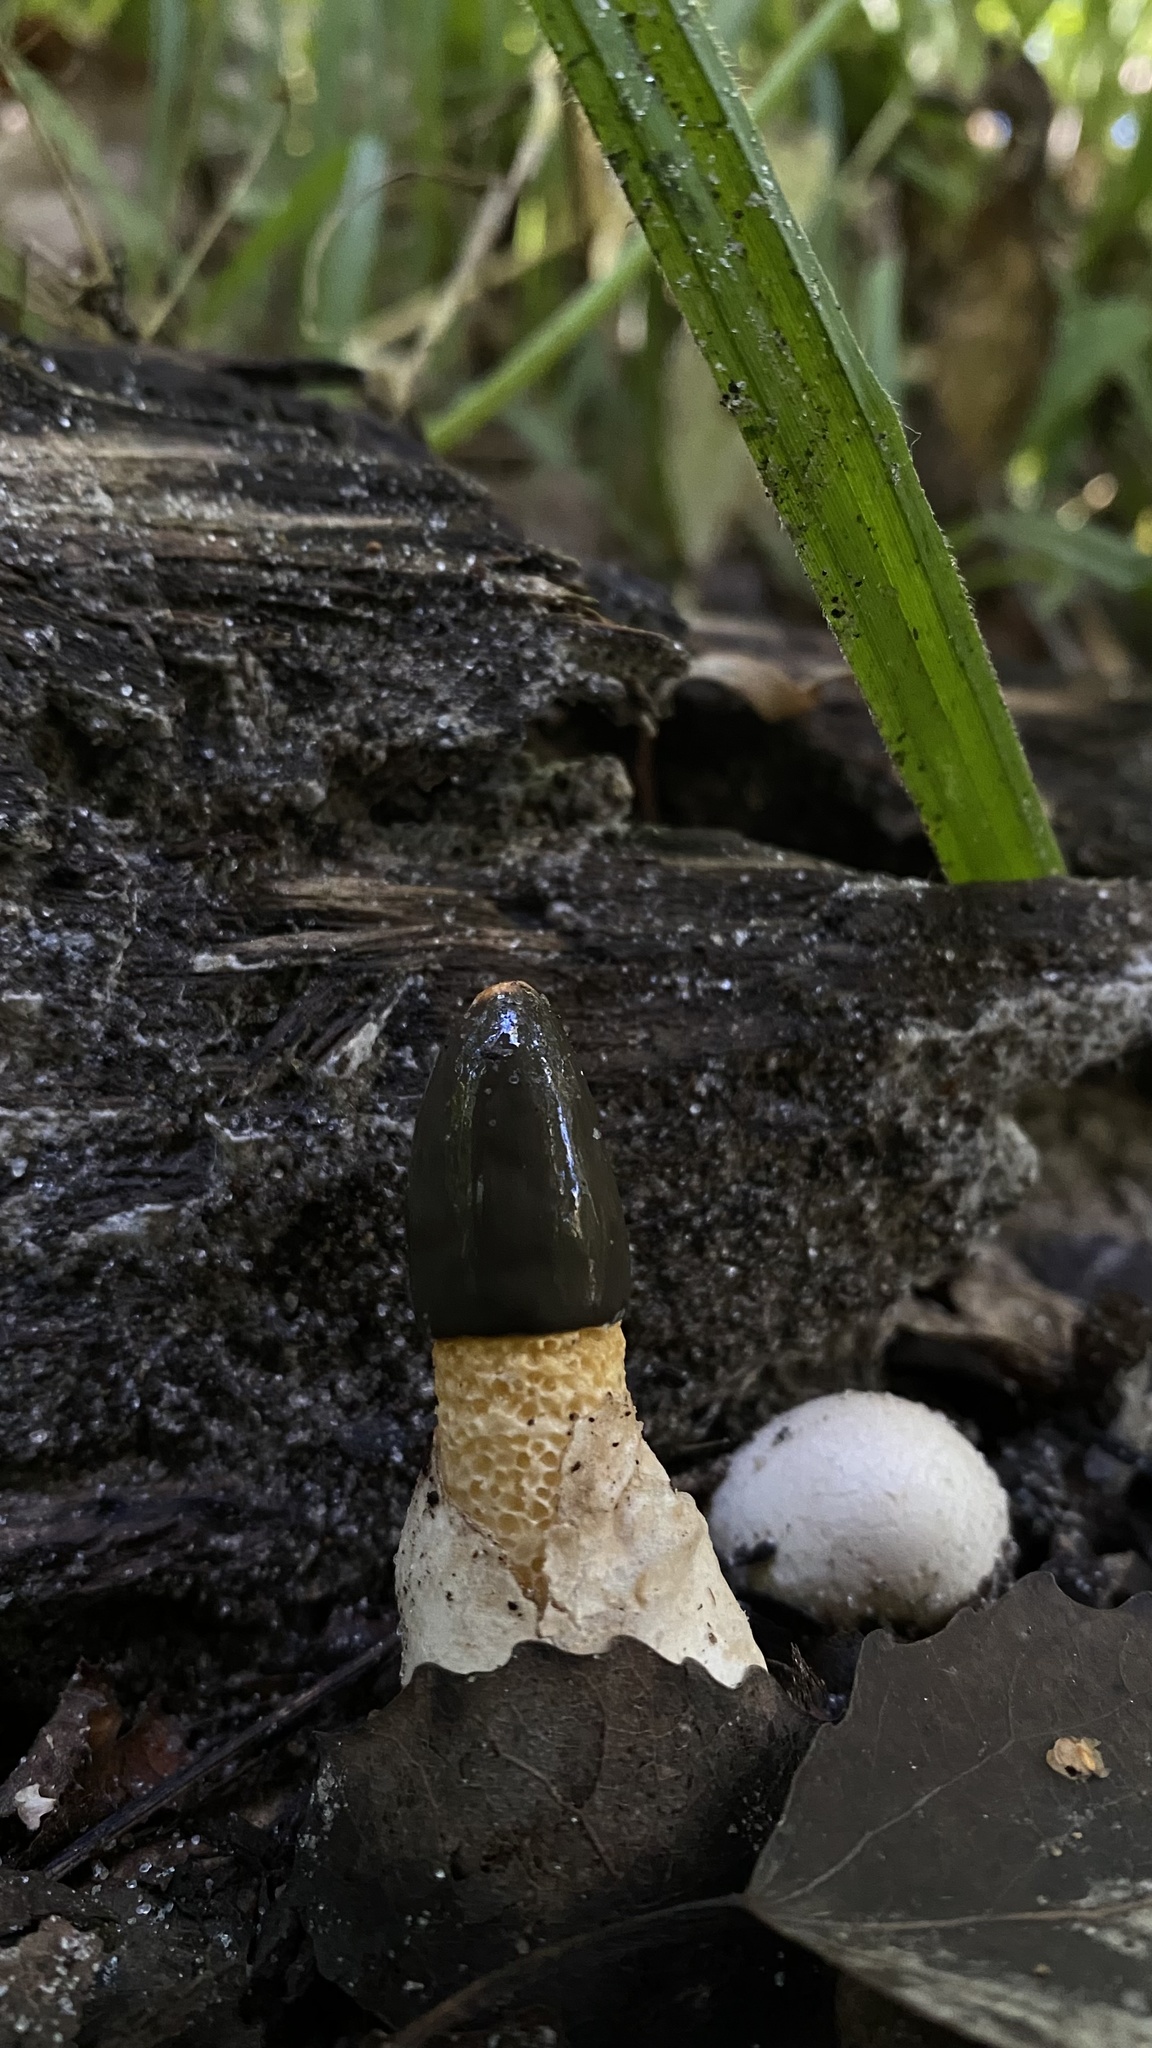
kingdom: Fungi
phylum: Basidiomycota
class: Agaricomycetes
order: Phallales
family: Phallaceae
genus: Mutinus
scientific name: Mutinus caninus
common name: Dog stinkhorn
